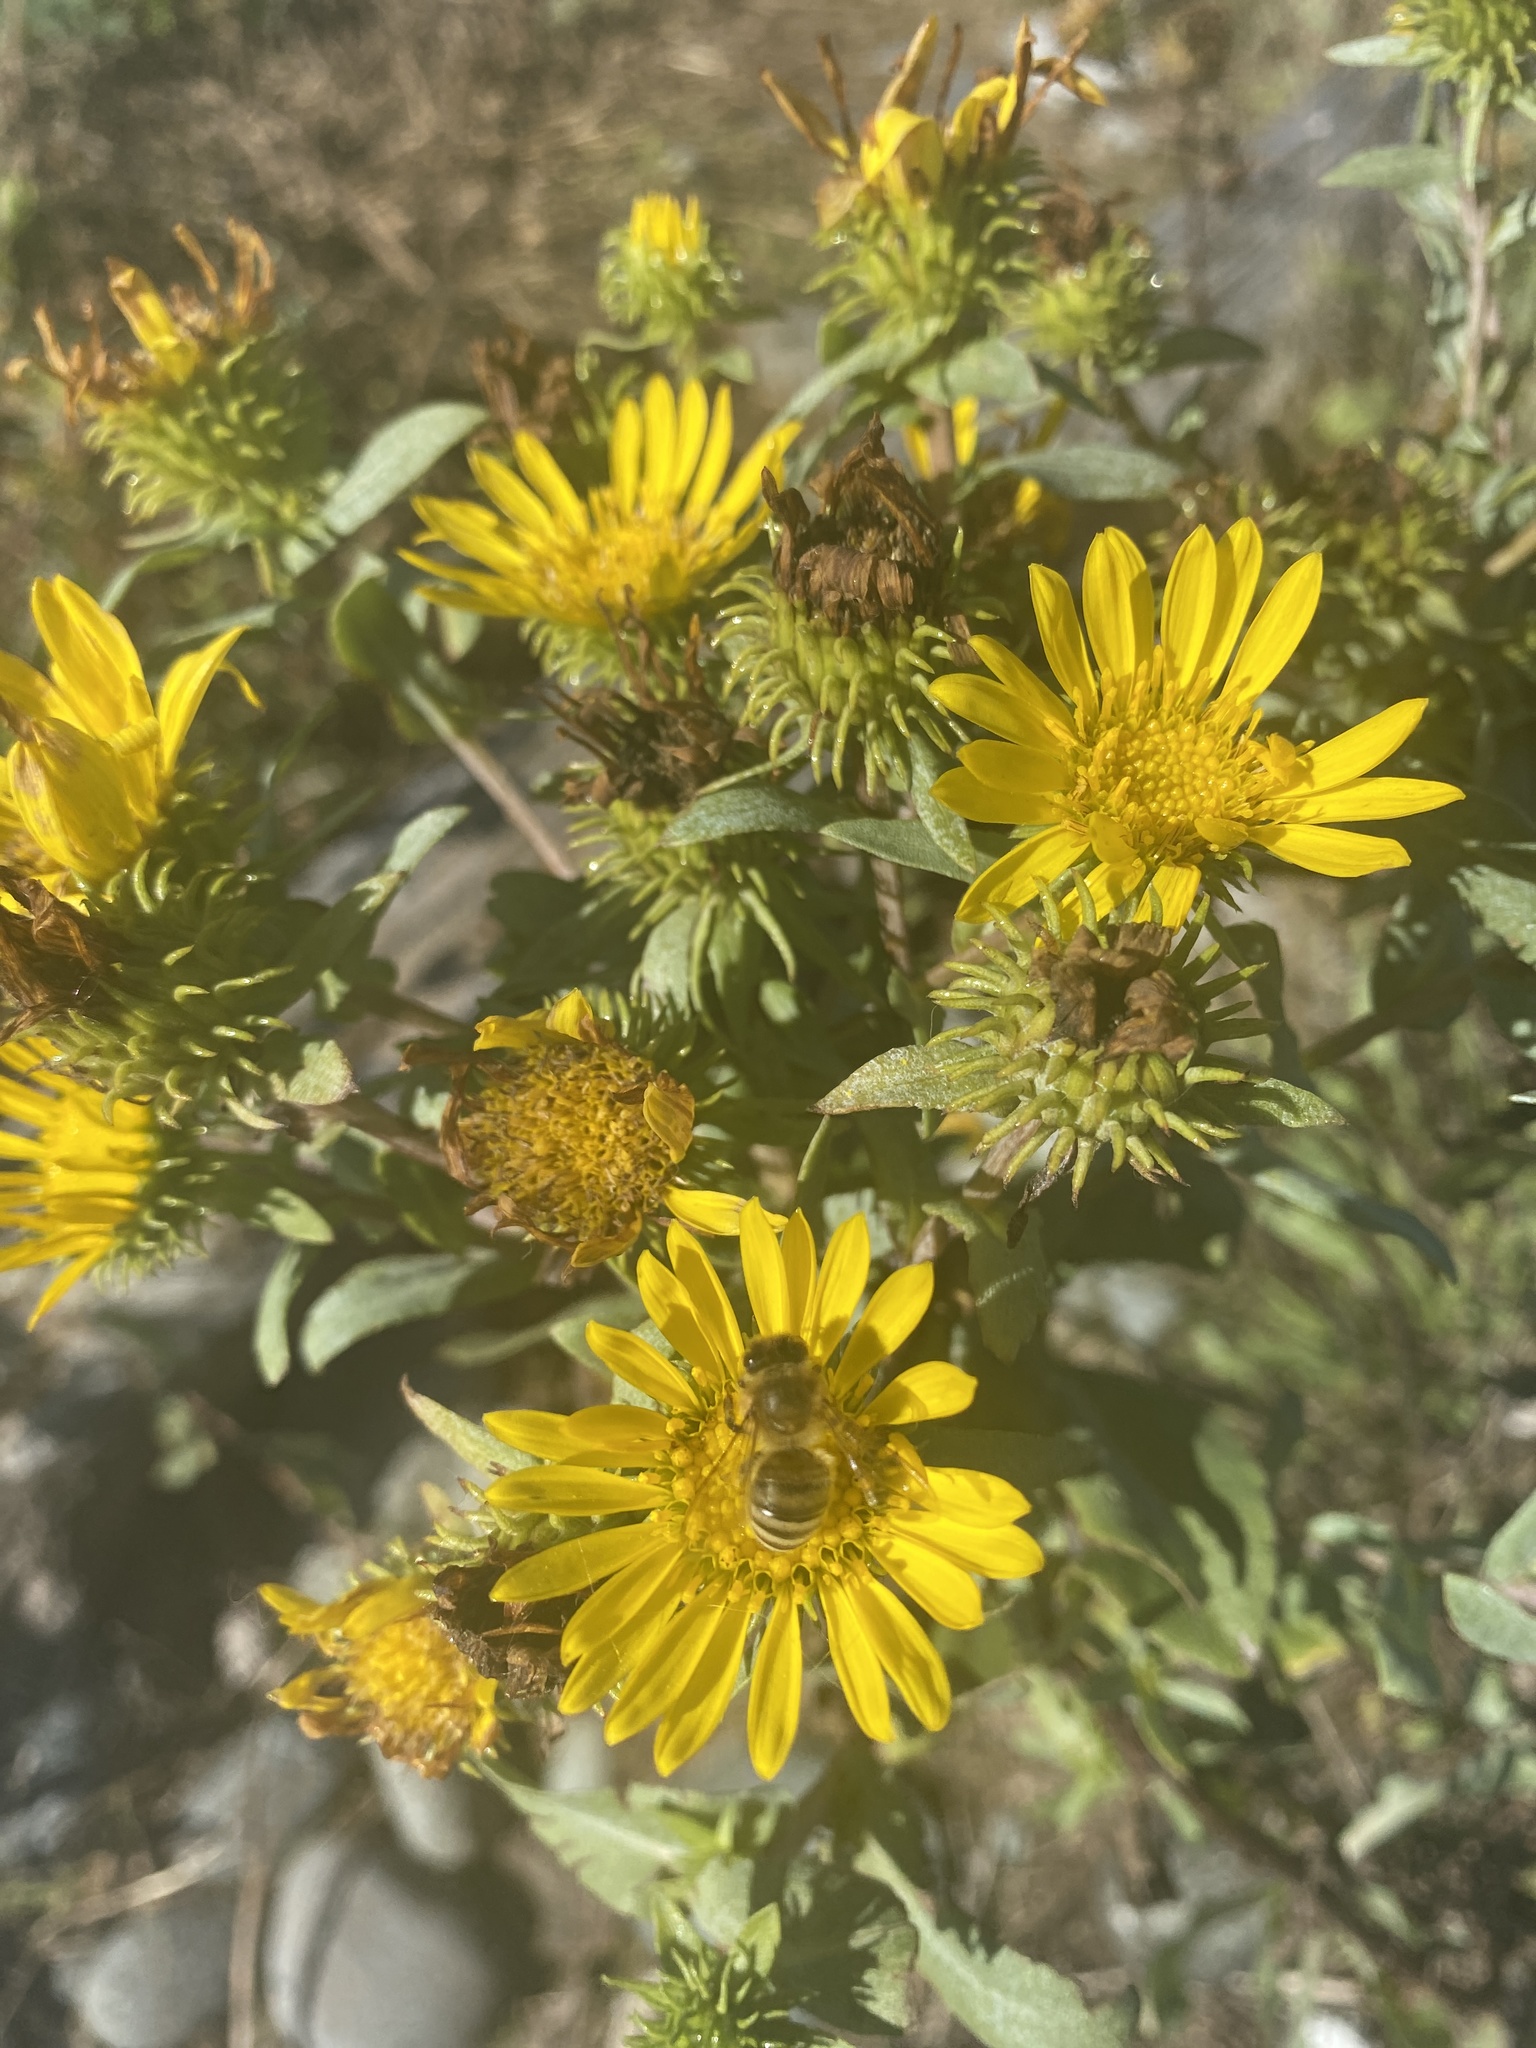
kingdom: Plantae
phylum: Tracheophyta
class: Magnoliopsida
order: Asterales
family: Asteraceae
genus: Grindelia
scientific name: Grindelia hirsutula
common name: Hairy gumweed
